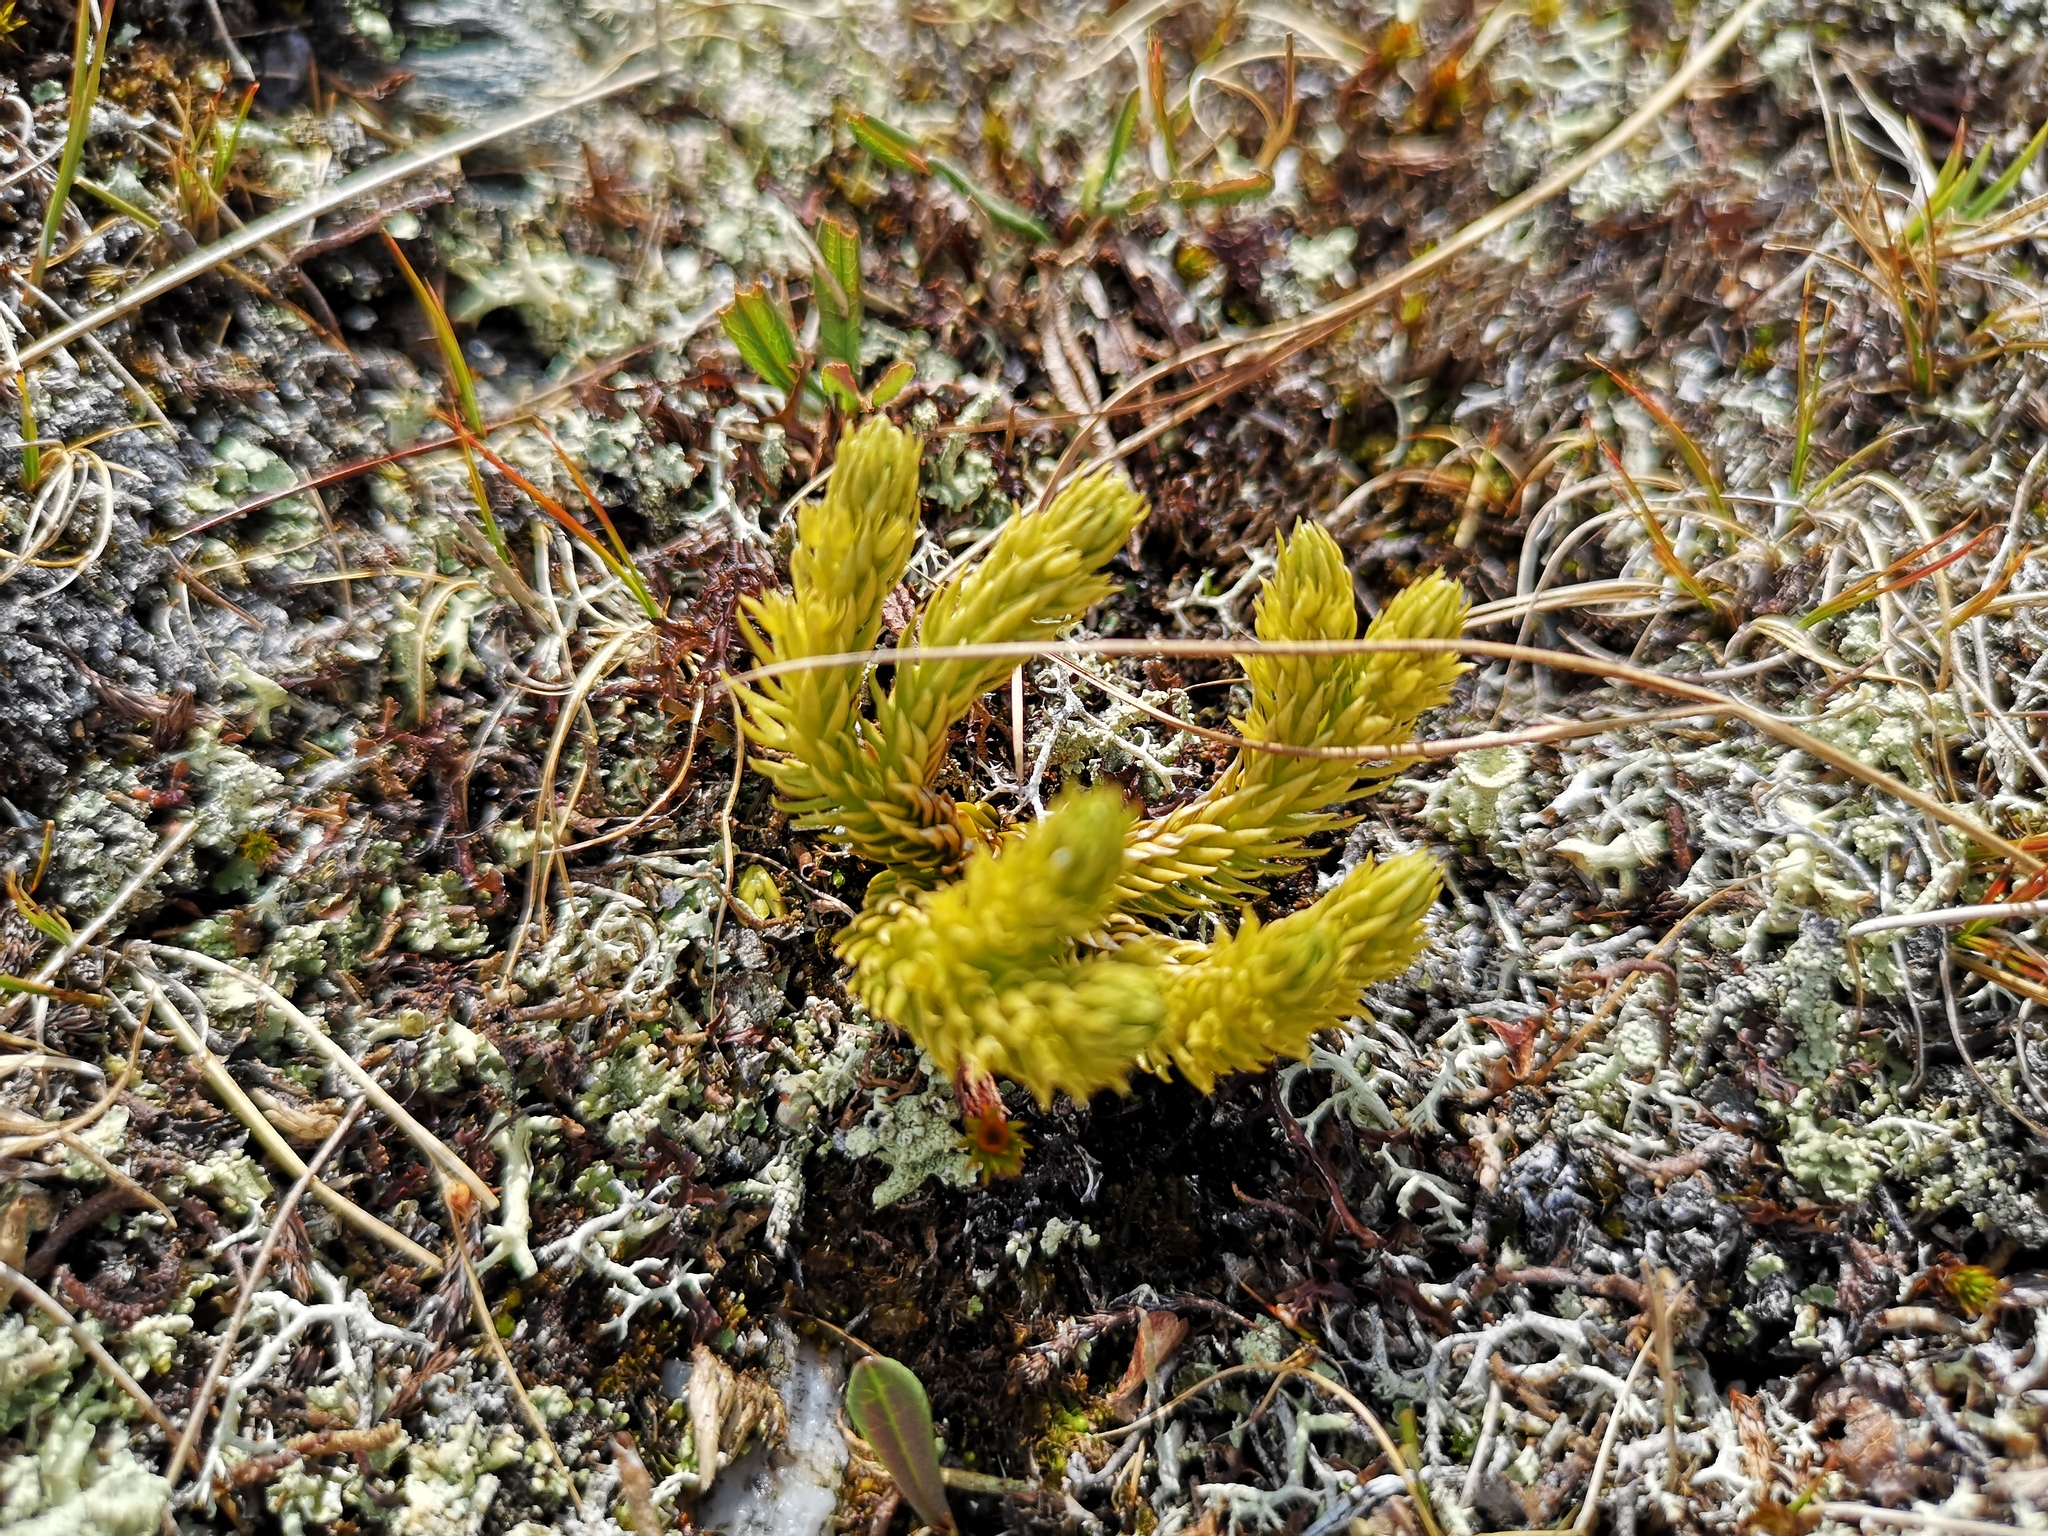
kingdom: Plantae
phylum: Tracheophyta
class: Lycopodiopsida
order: Lycopodiales
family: Lycopodiaceae
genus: Huperzia
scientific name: Huperzia selago
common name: Northern firmoss
